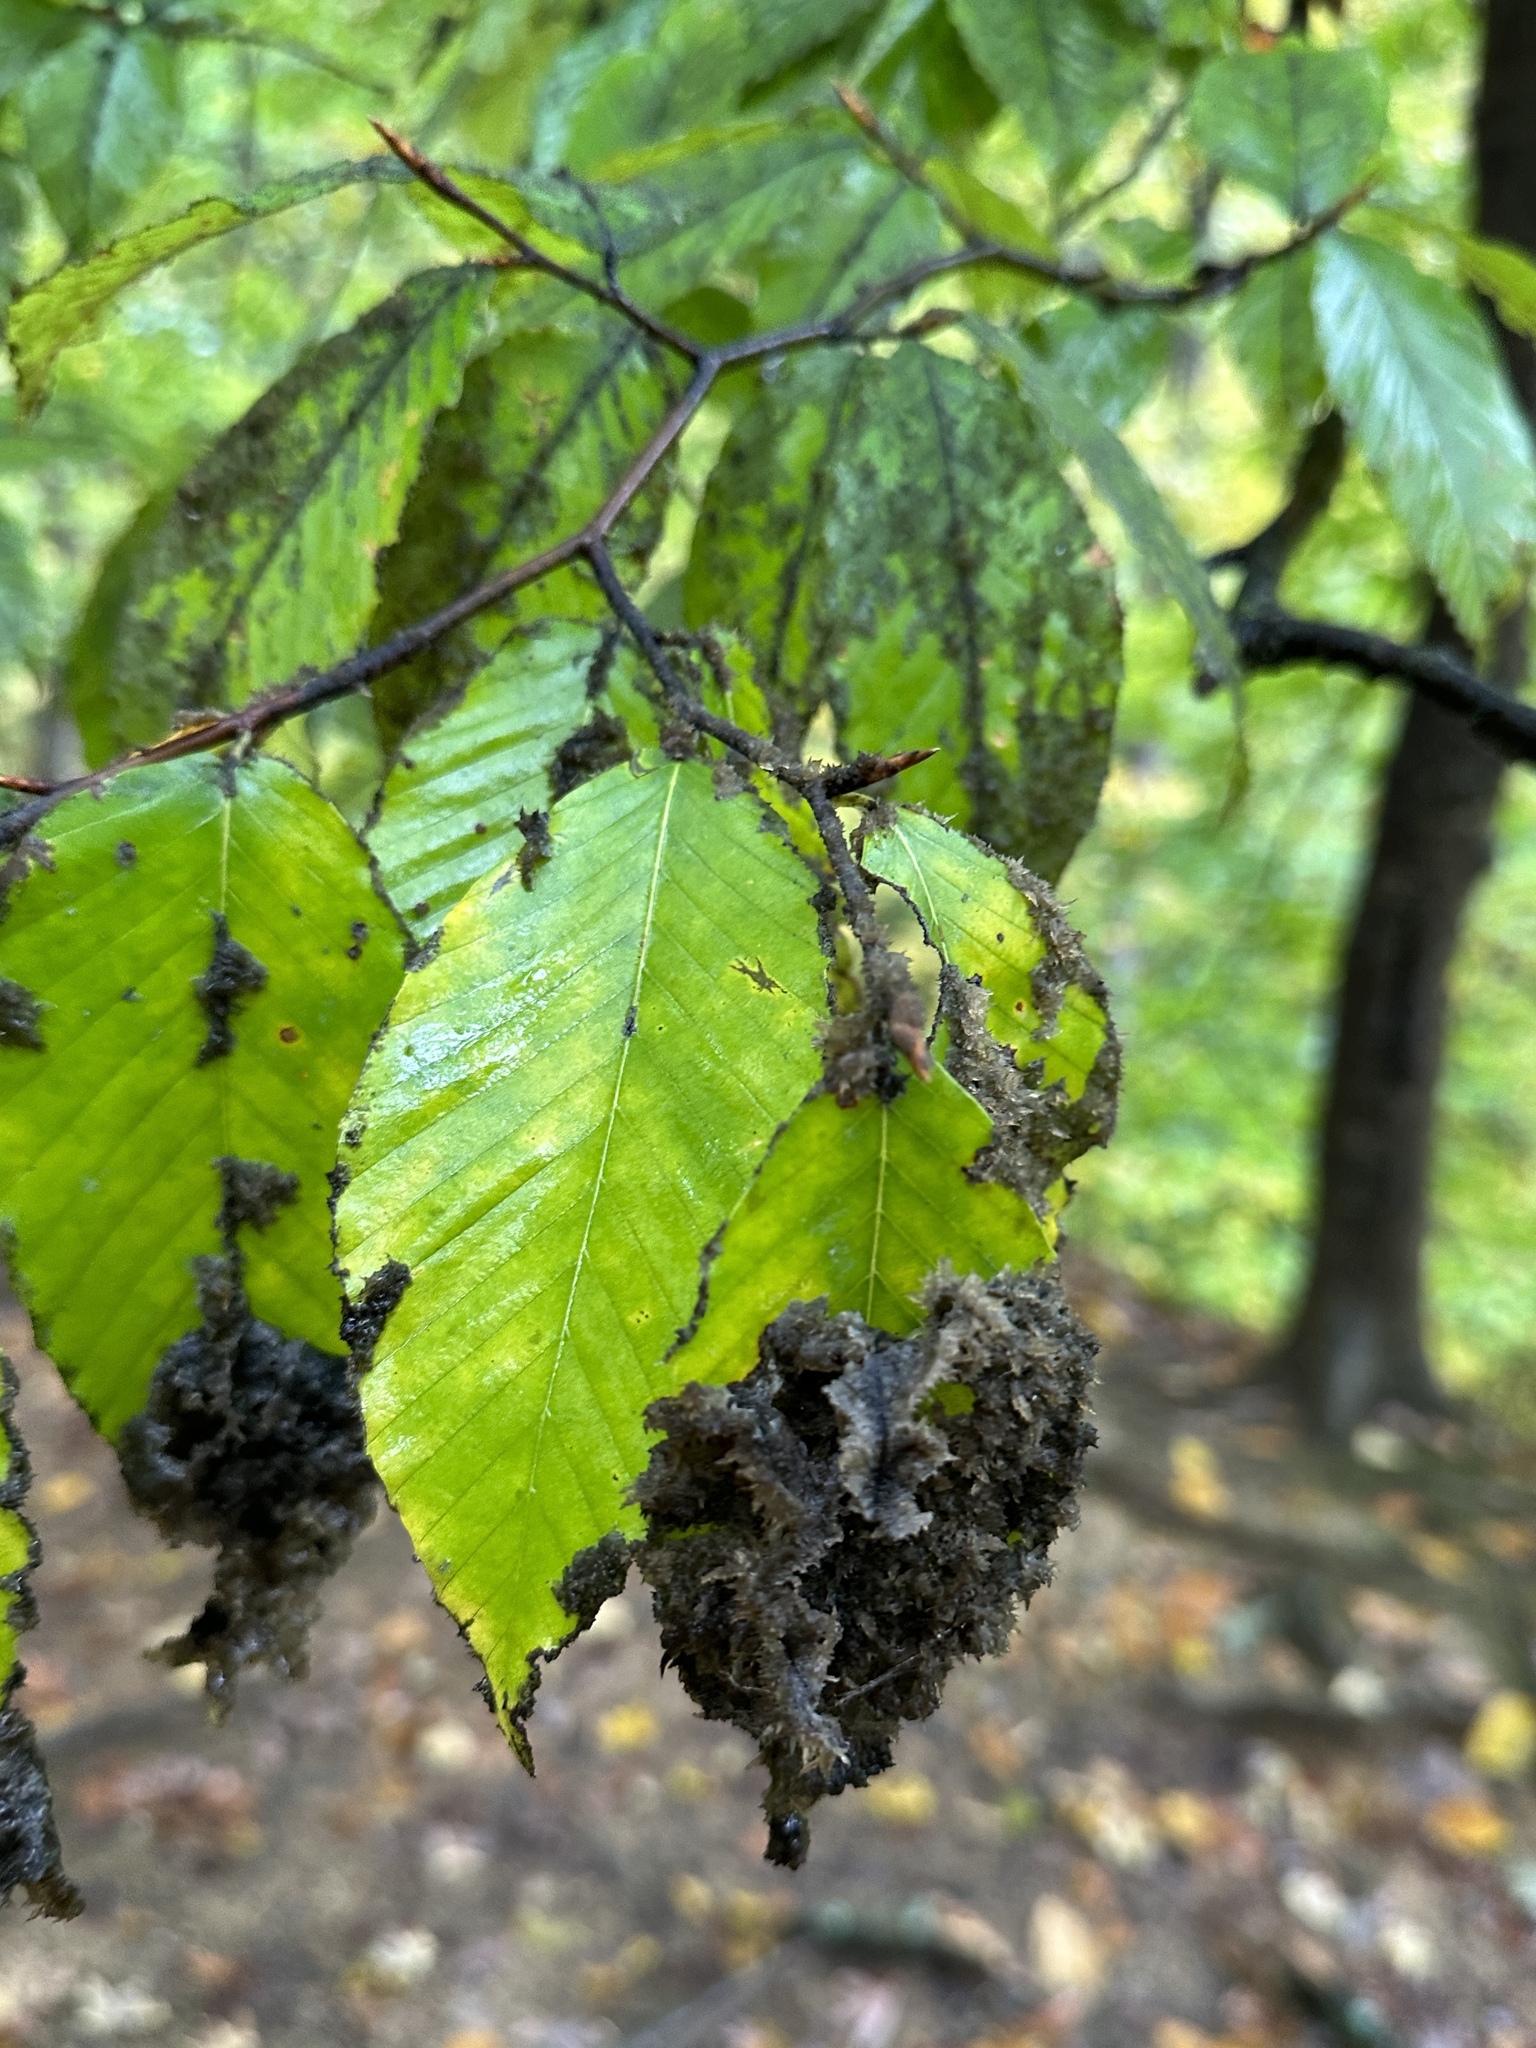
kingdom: Fungi
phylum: Ascomycota
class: Dothideomycetes
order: Capnodiales
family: Capnodiaceae
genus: Scorias
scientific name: Scorias spongiosa
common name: Black sooty mold
